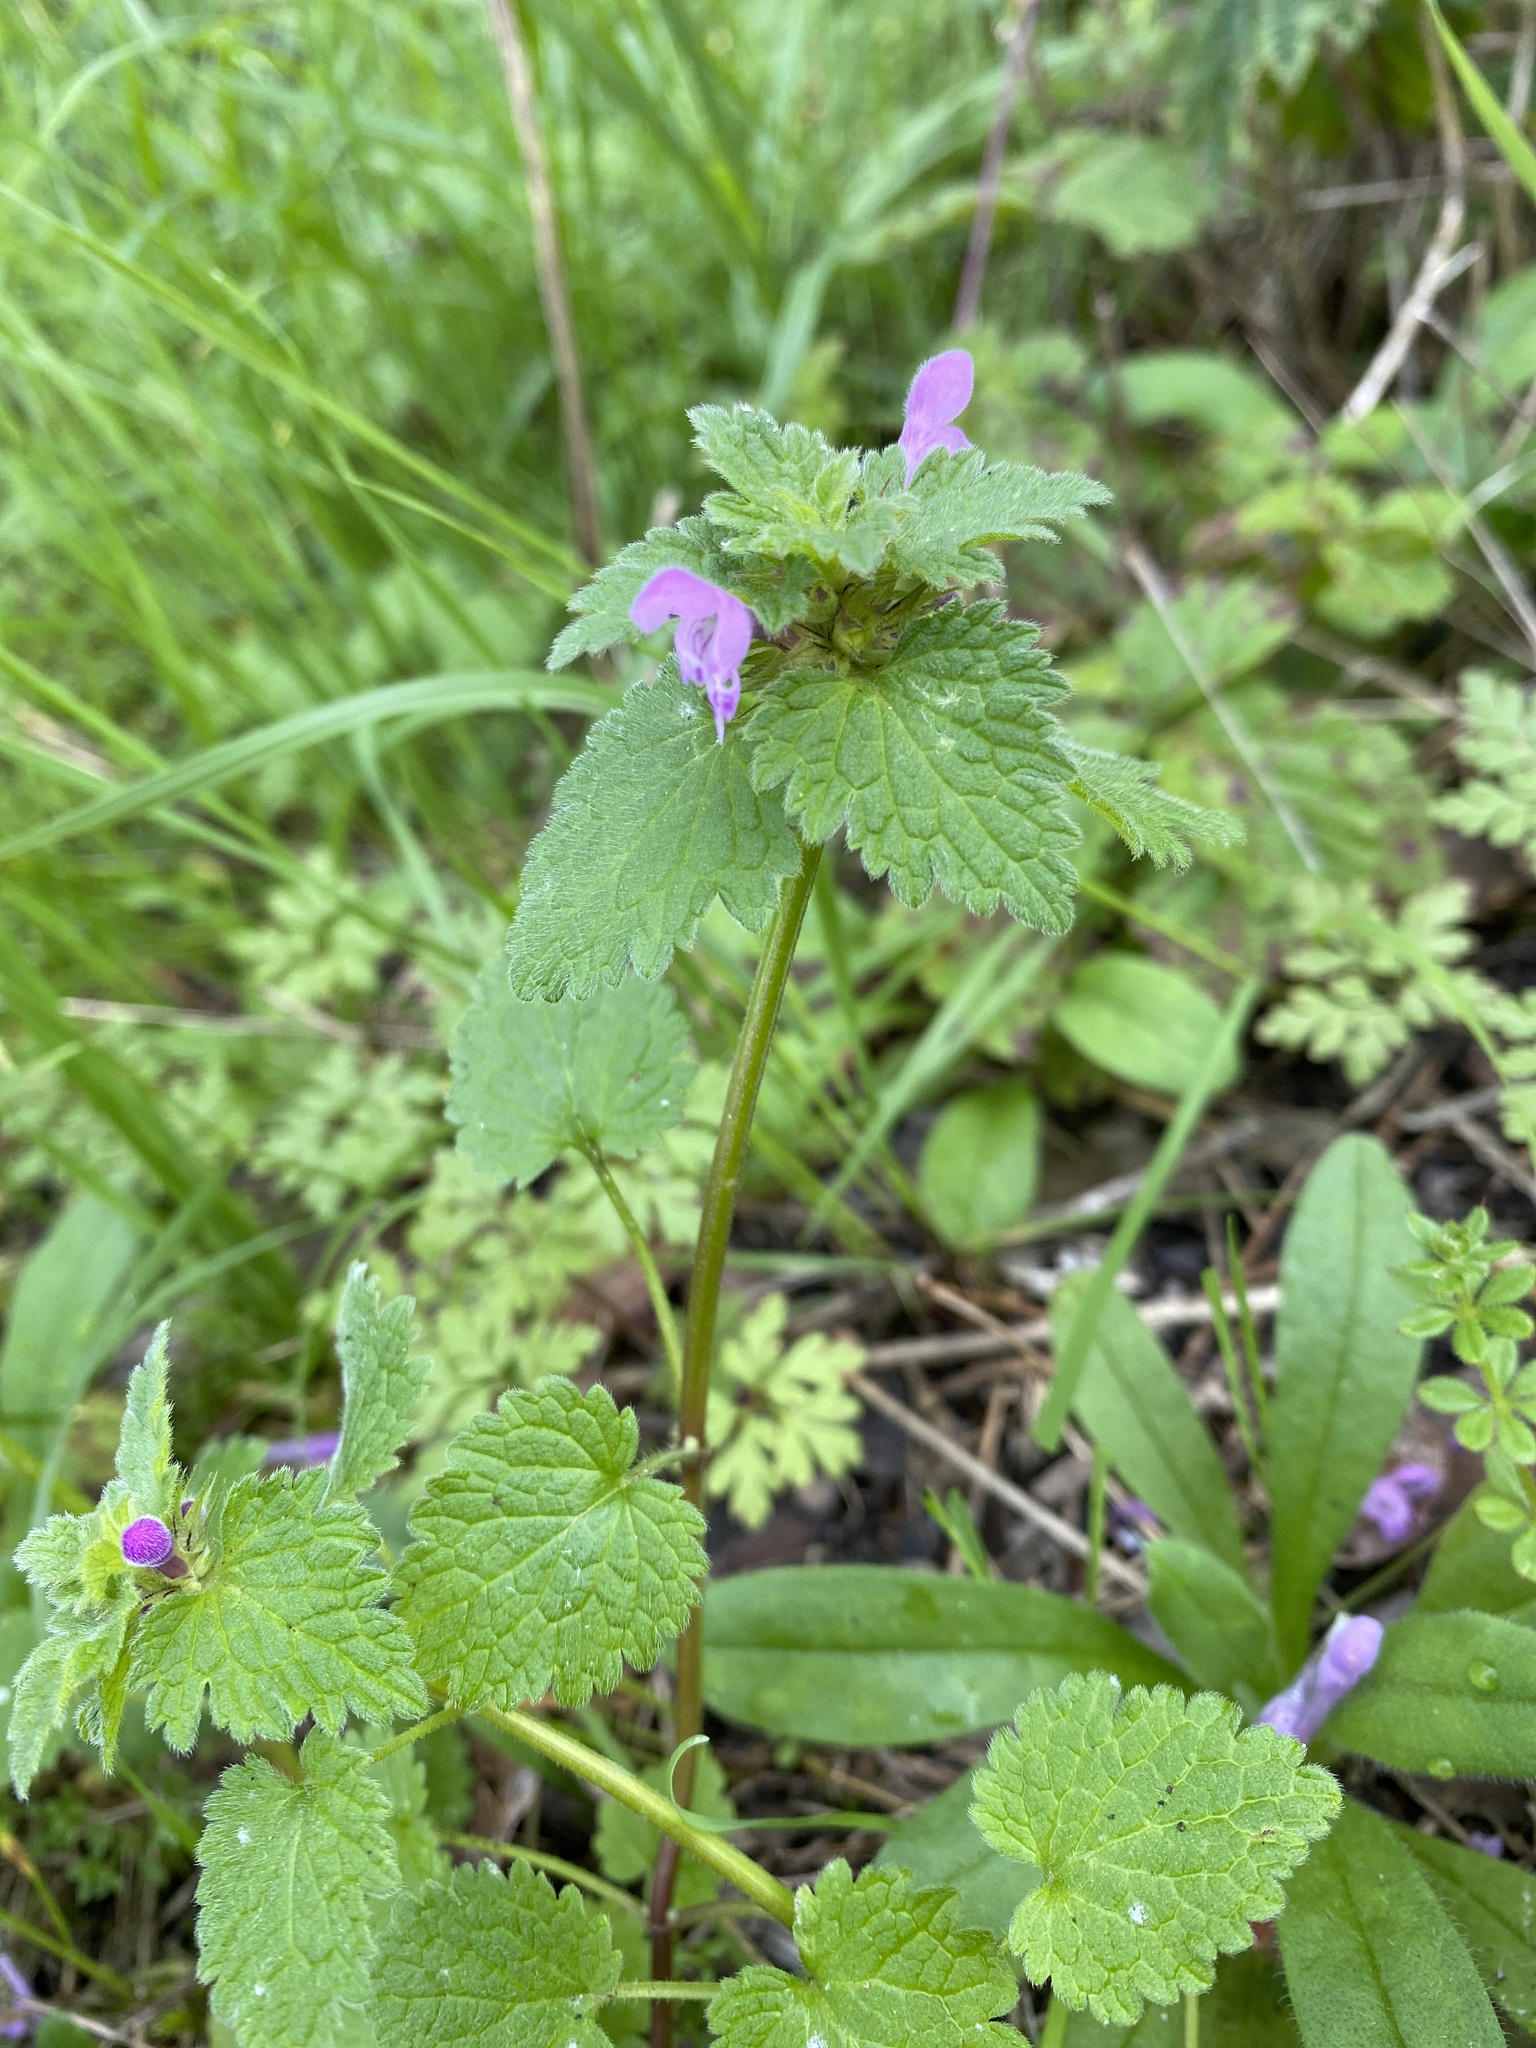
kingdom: Plantae
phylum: Tracheophyta
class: Magnoliopsida
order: Lamiales
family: Lamiaceae
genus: Lamium
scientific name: Lamium purpureum
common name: Red dead-nettle
